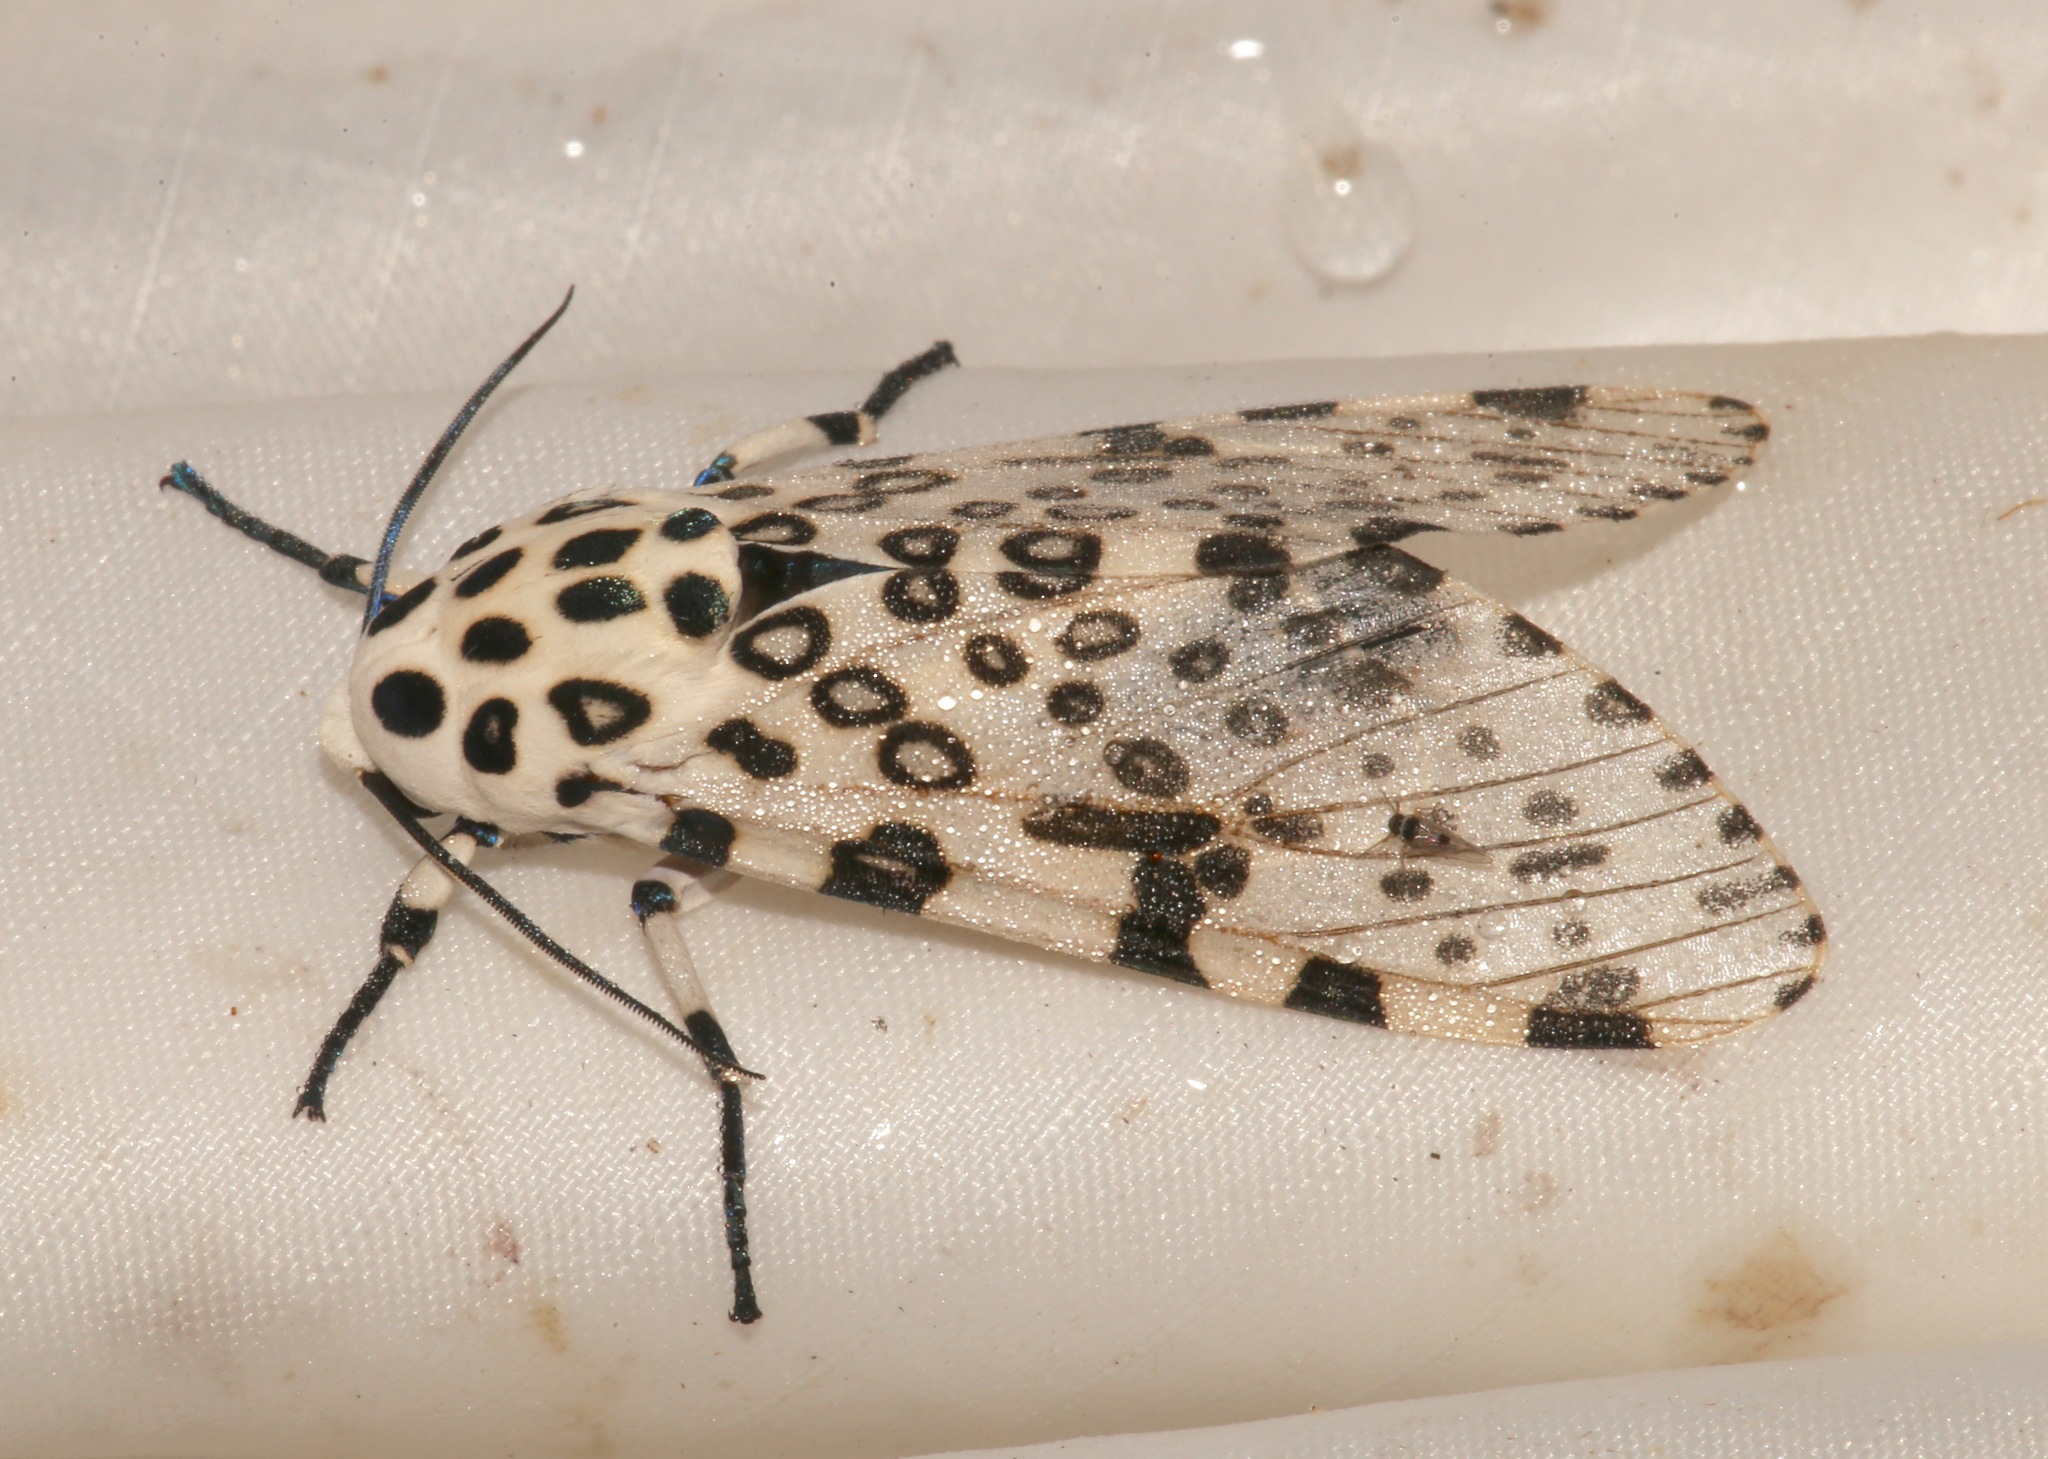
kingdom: Animalia
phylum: Arthropoda
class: Insecta
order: Lepidoptera
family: Erebidae
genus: Hypercompe
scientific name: Hypercompe scribonia
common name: Giant leopard moth
